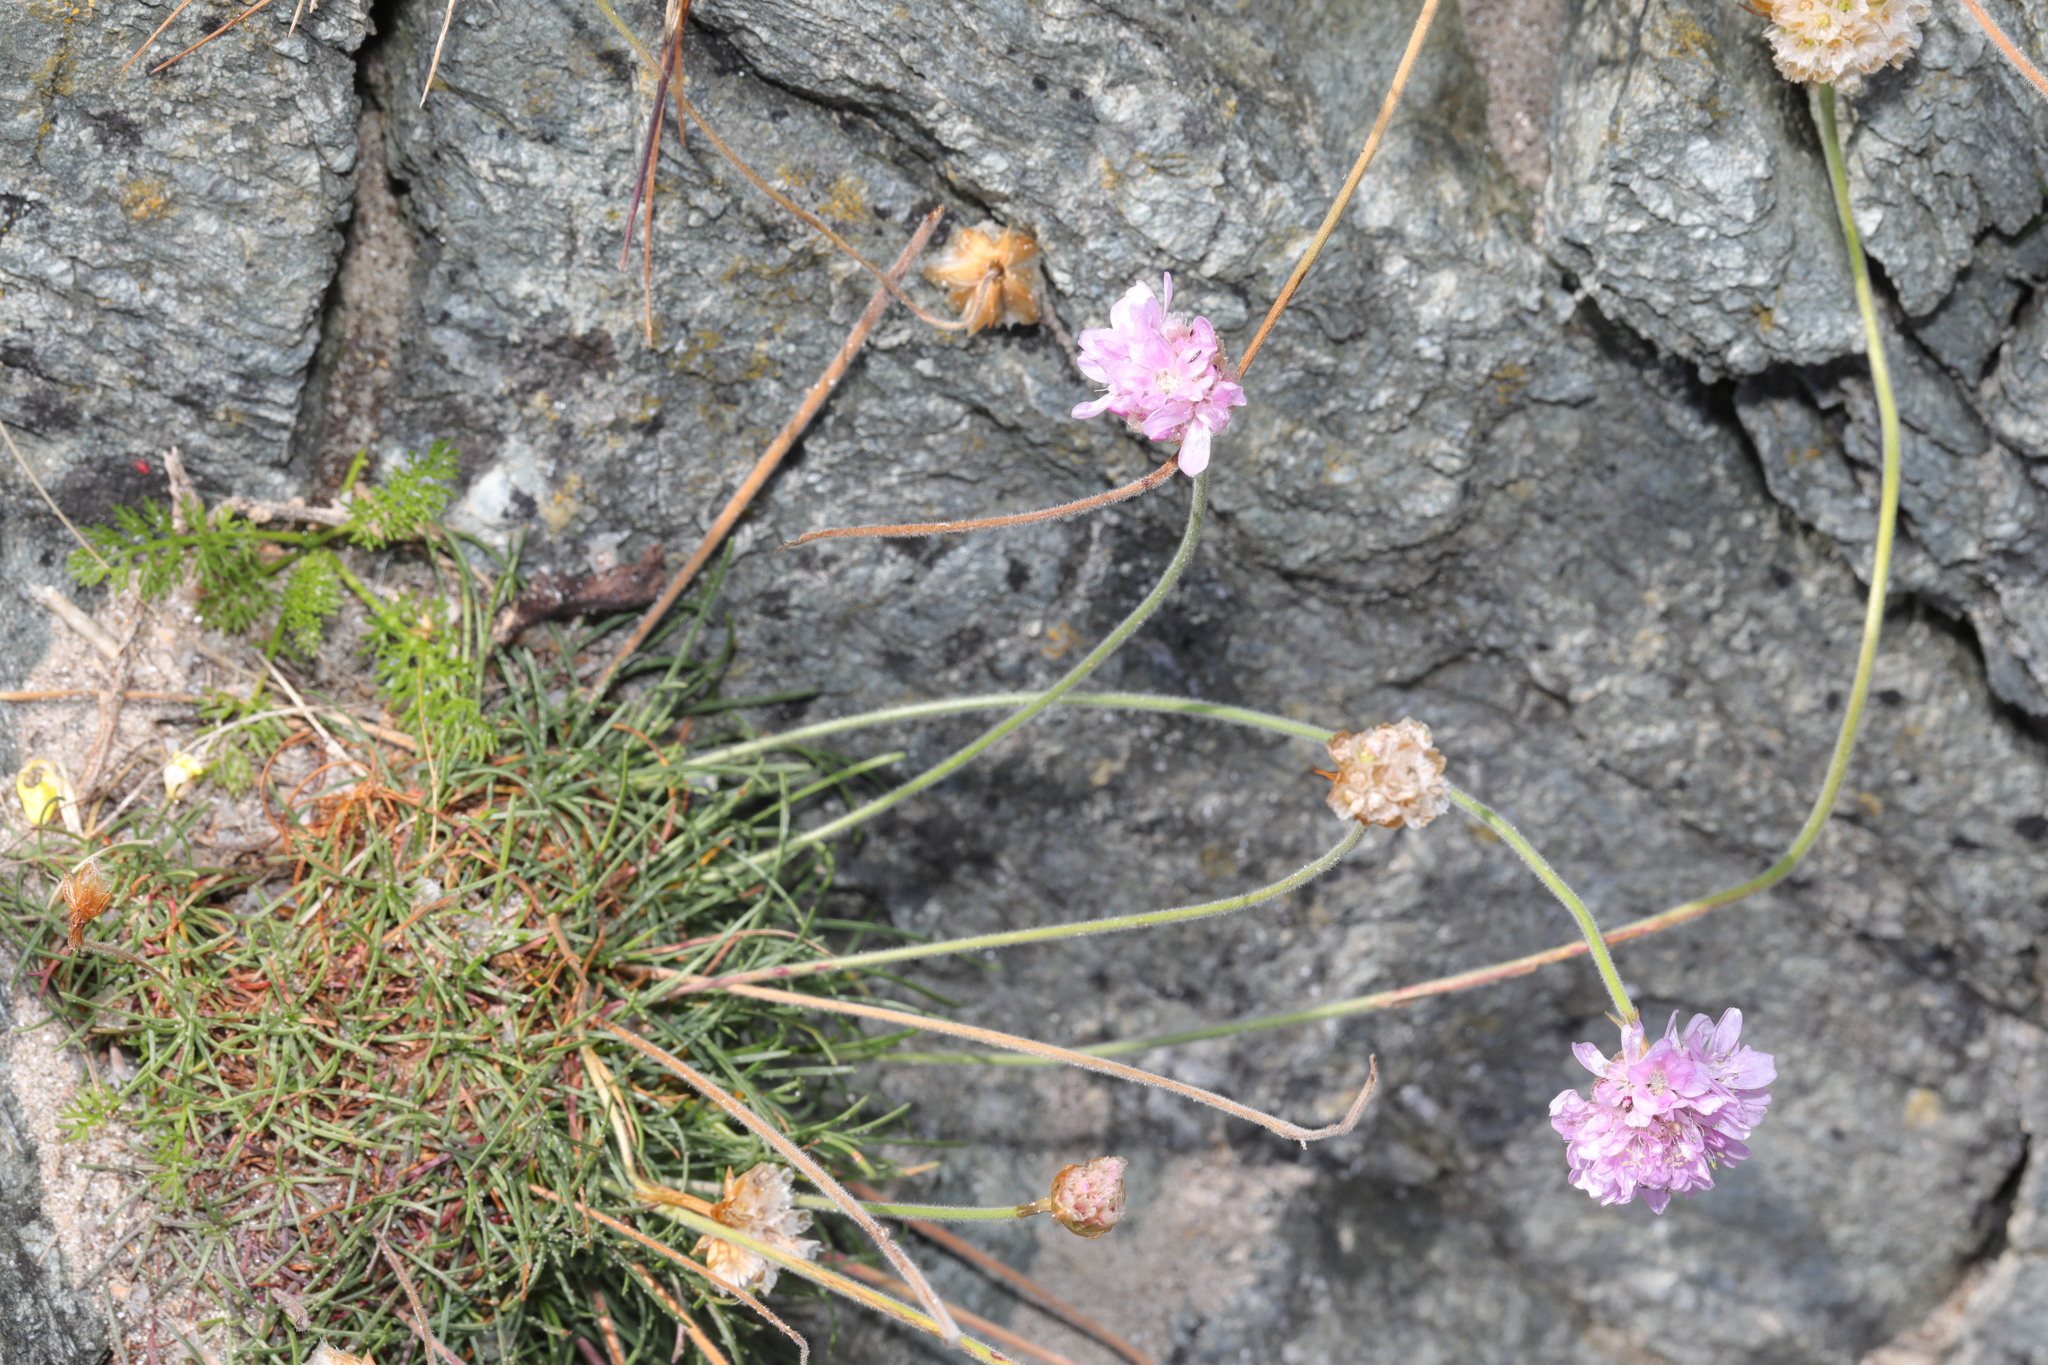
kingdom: Plantae
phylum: Tracheophyta
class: Magnoliopsida
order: Caryophyllales
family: Plumbaginaceae
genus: Armeria
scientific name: Armeria maritima
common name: Thrift
